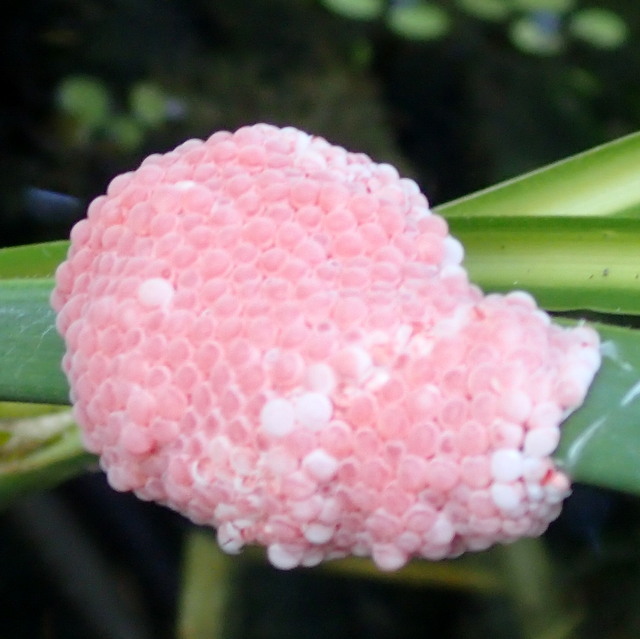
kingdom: Animalia
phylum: Mollusca
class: Gastropoda
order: Architaenioglossa
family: Ampullariidae
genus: Pomacea
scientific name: Pomacea maculata
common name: Giant applesnail
